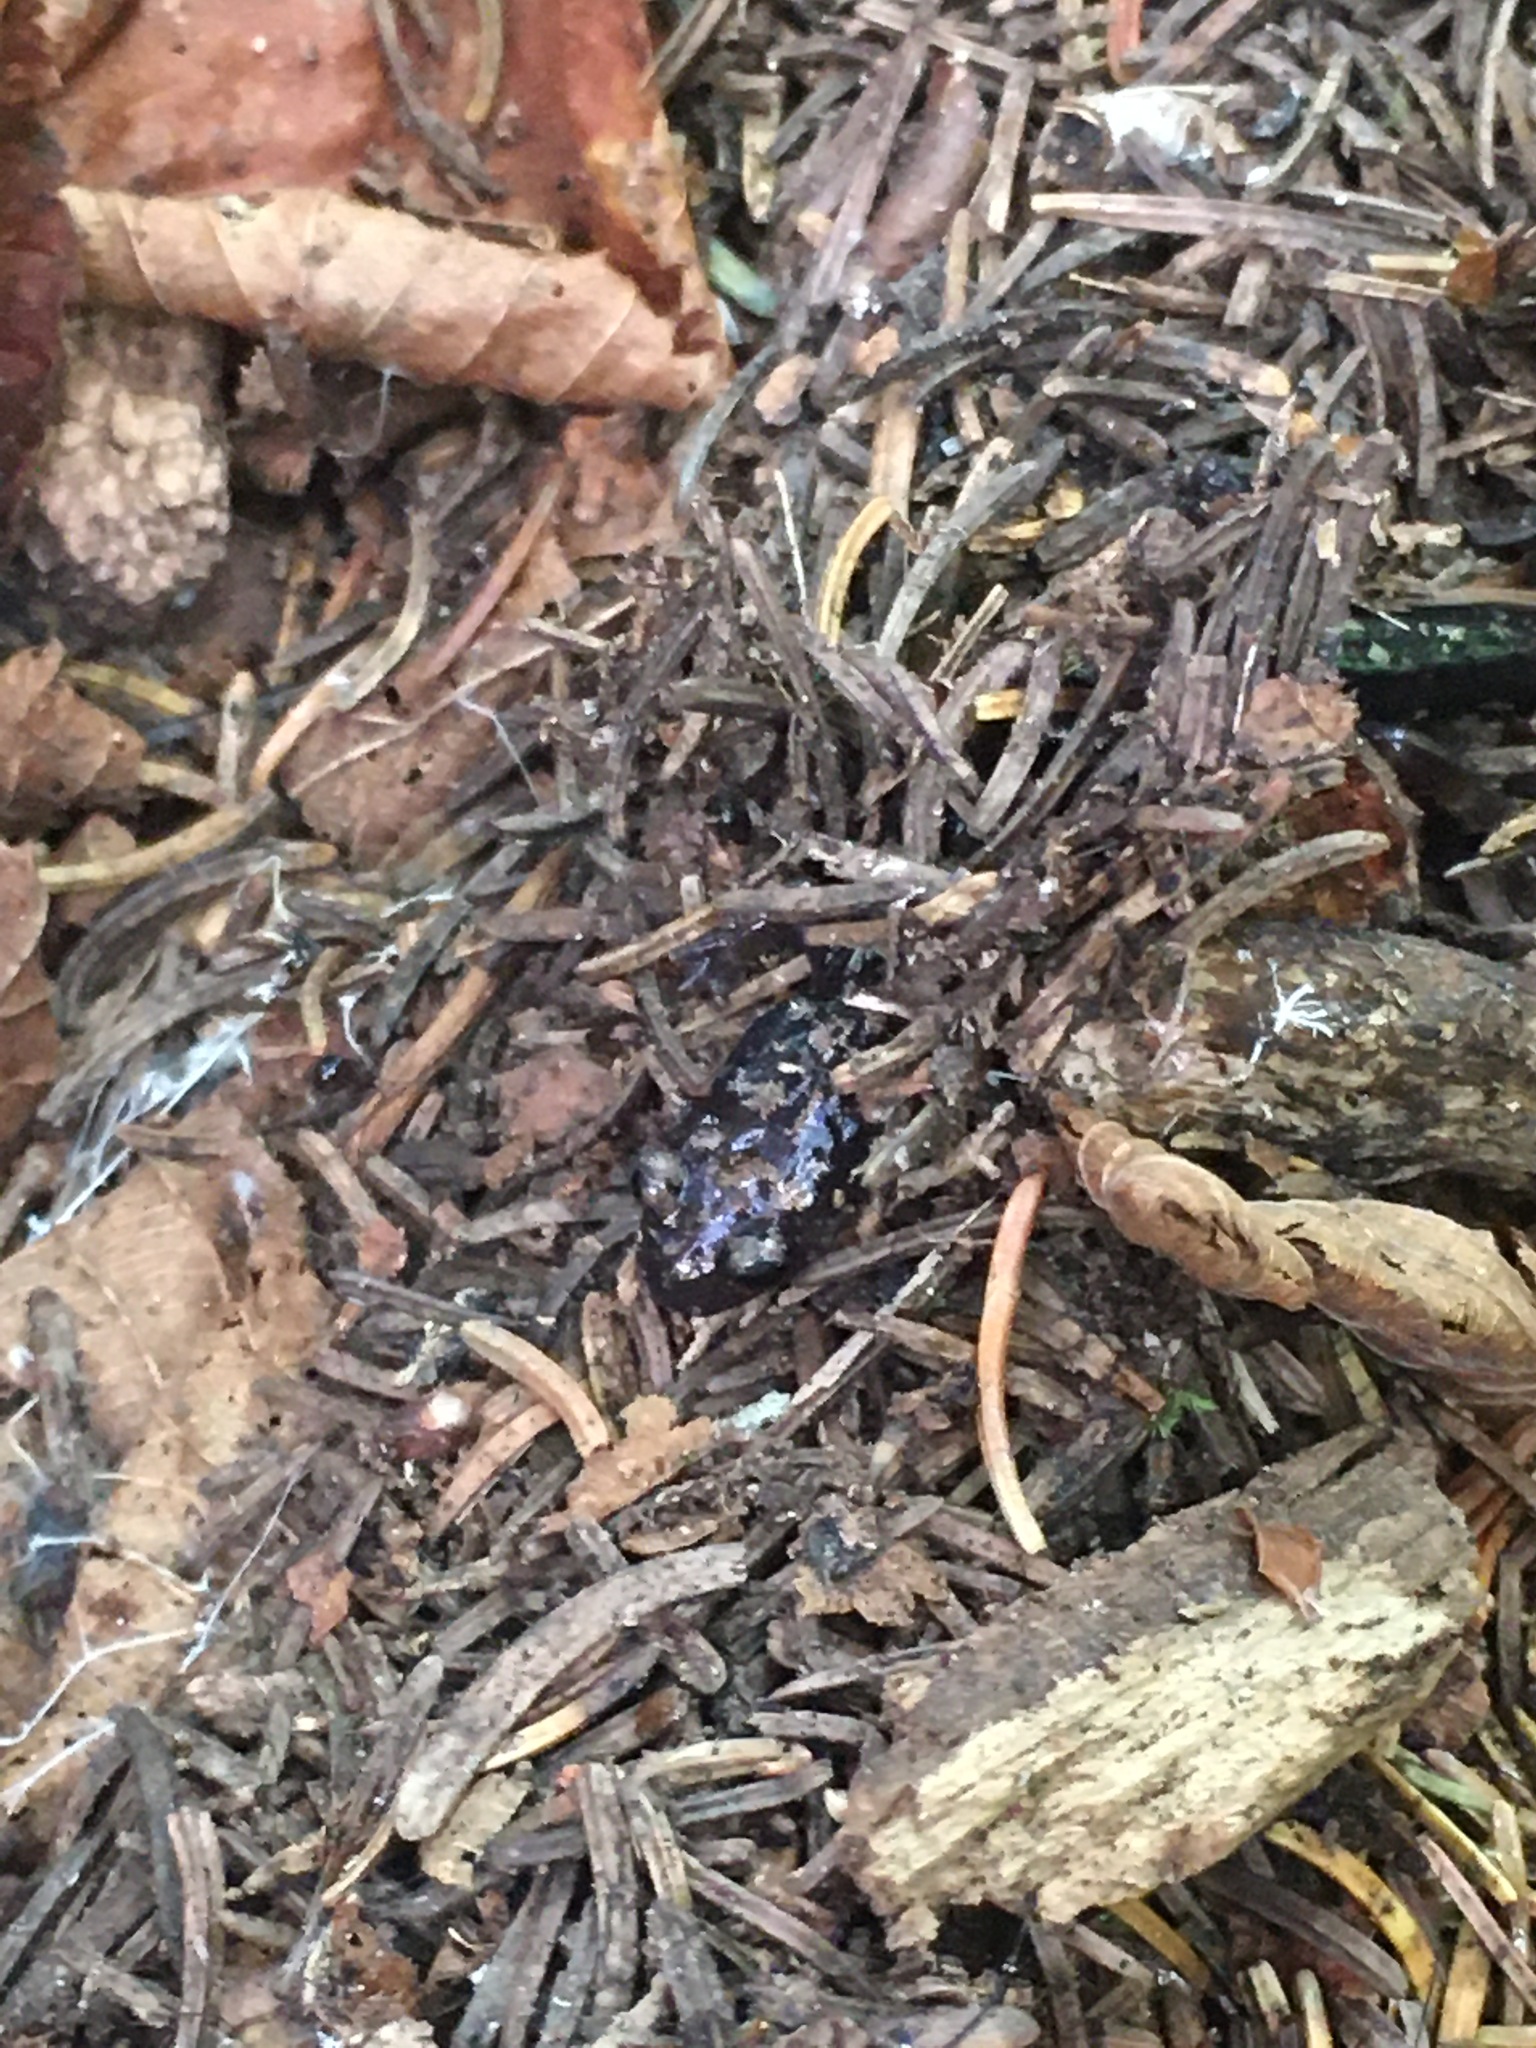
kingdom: Animalia
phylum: Chordata
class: Amphibia
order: Caudata
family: Plethodontidae
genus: Plethodon
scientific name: Plethodon welleri
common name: Weller's salamander
